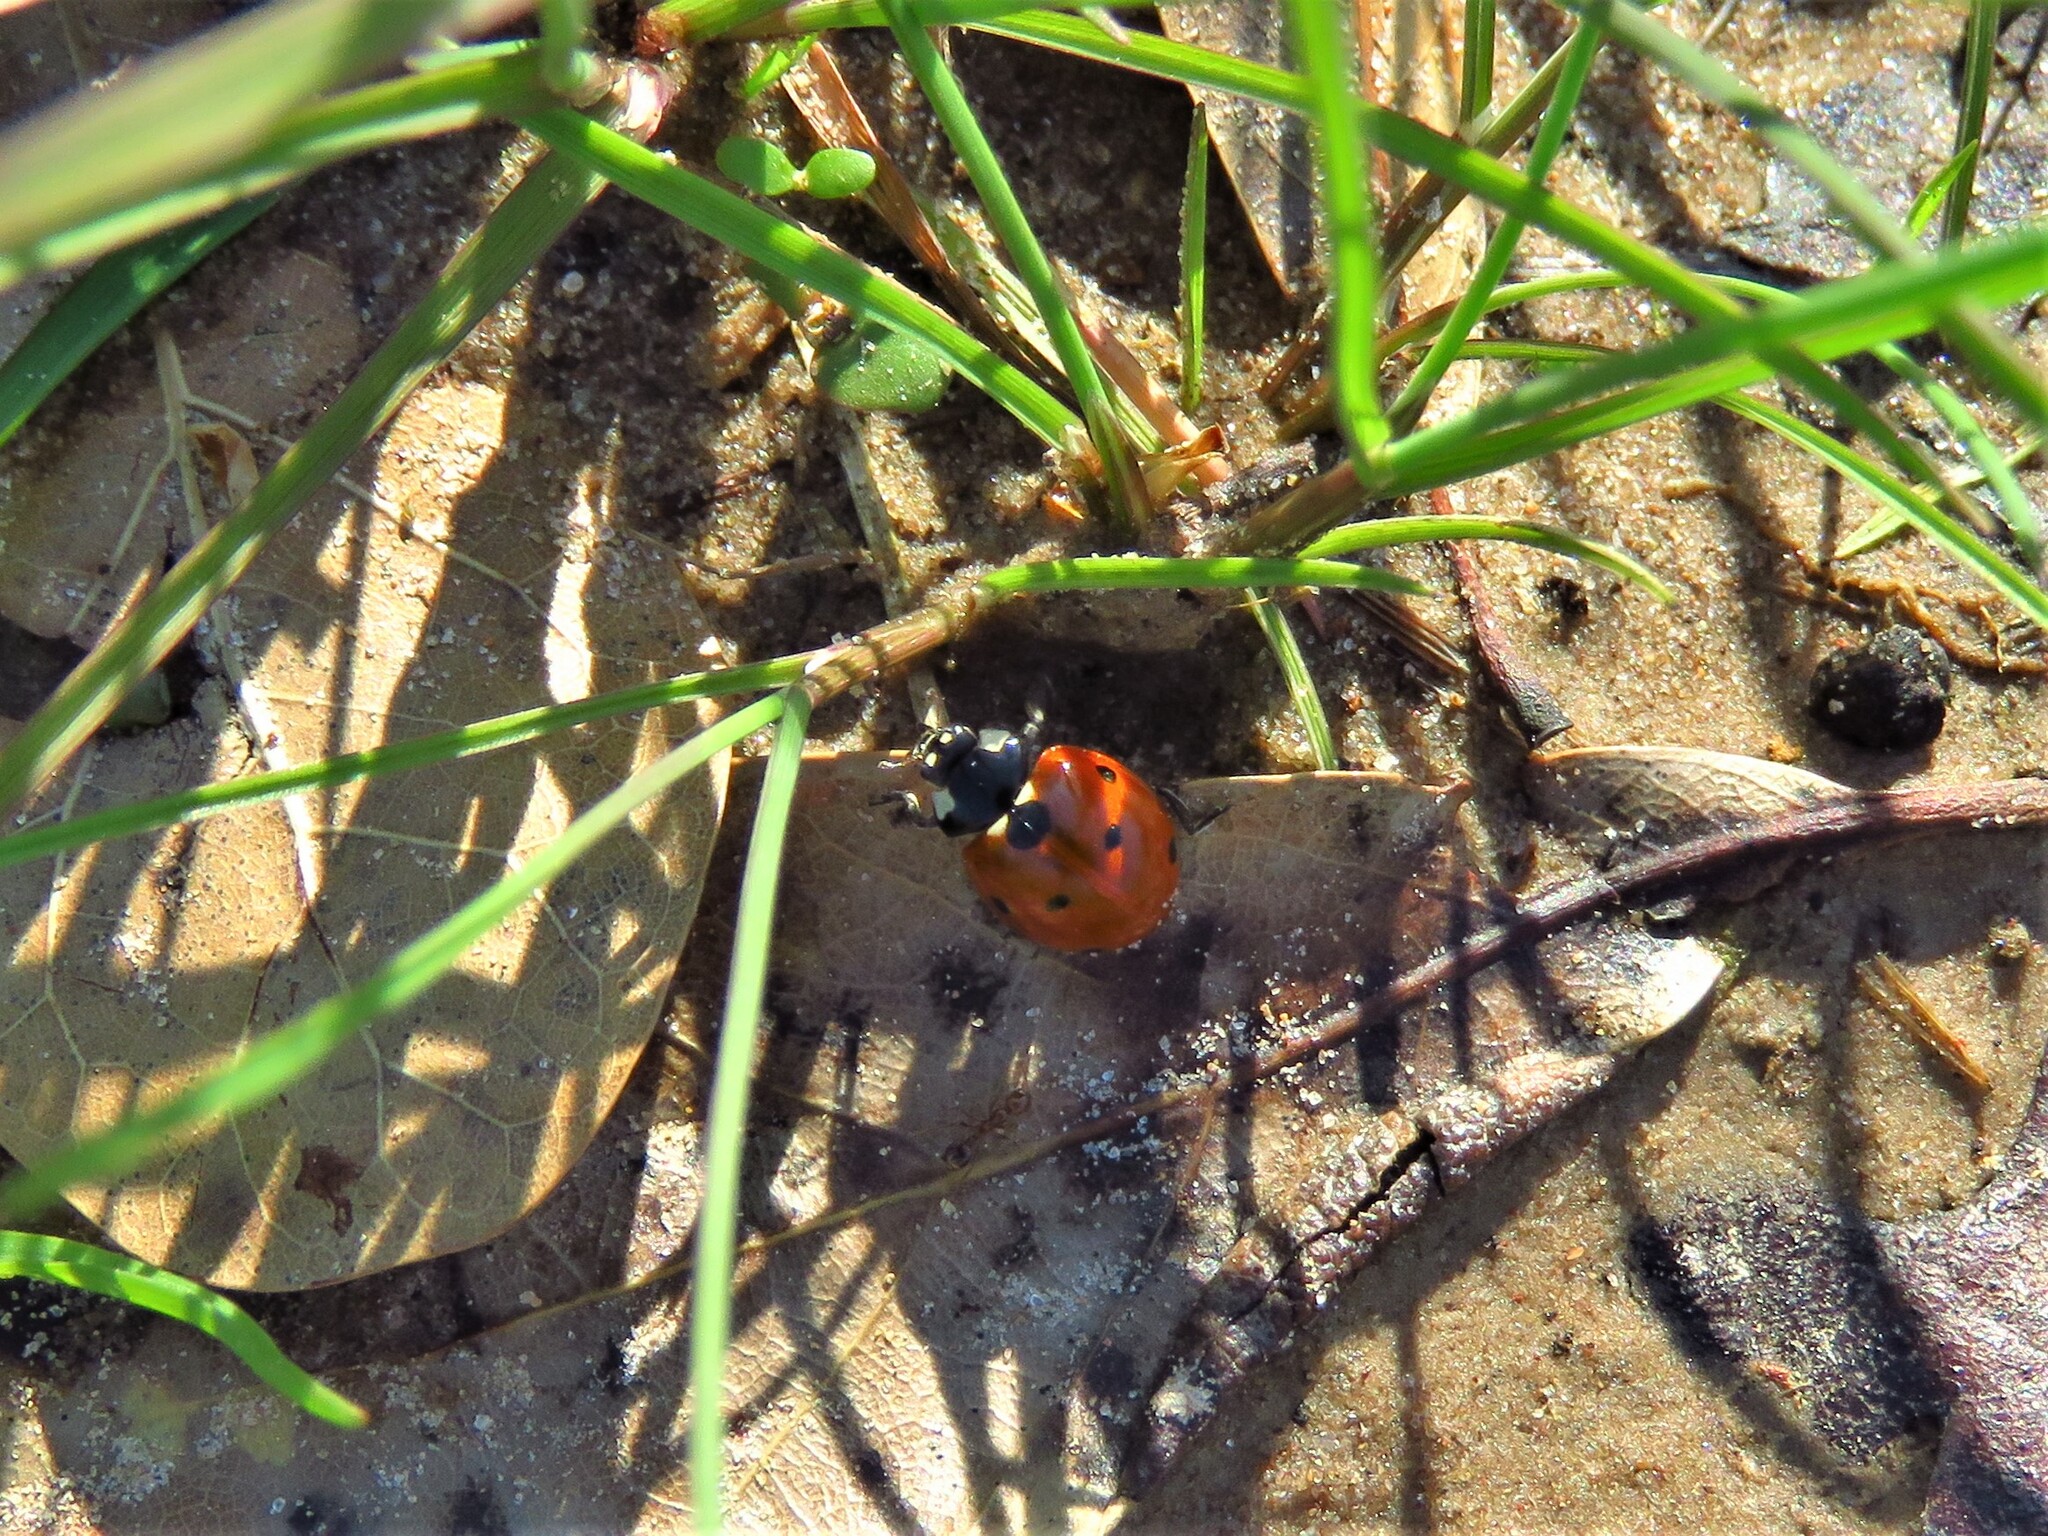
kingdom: Animalia
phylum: Arthropoda
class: Insecta
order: Coleoptera
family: Coccinellidae
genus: Coccinella
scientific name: Coccinella septempunctata
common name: Sevenspotted lady beetle
